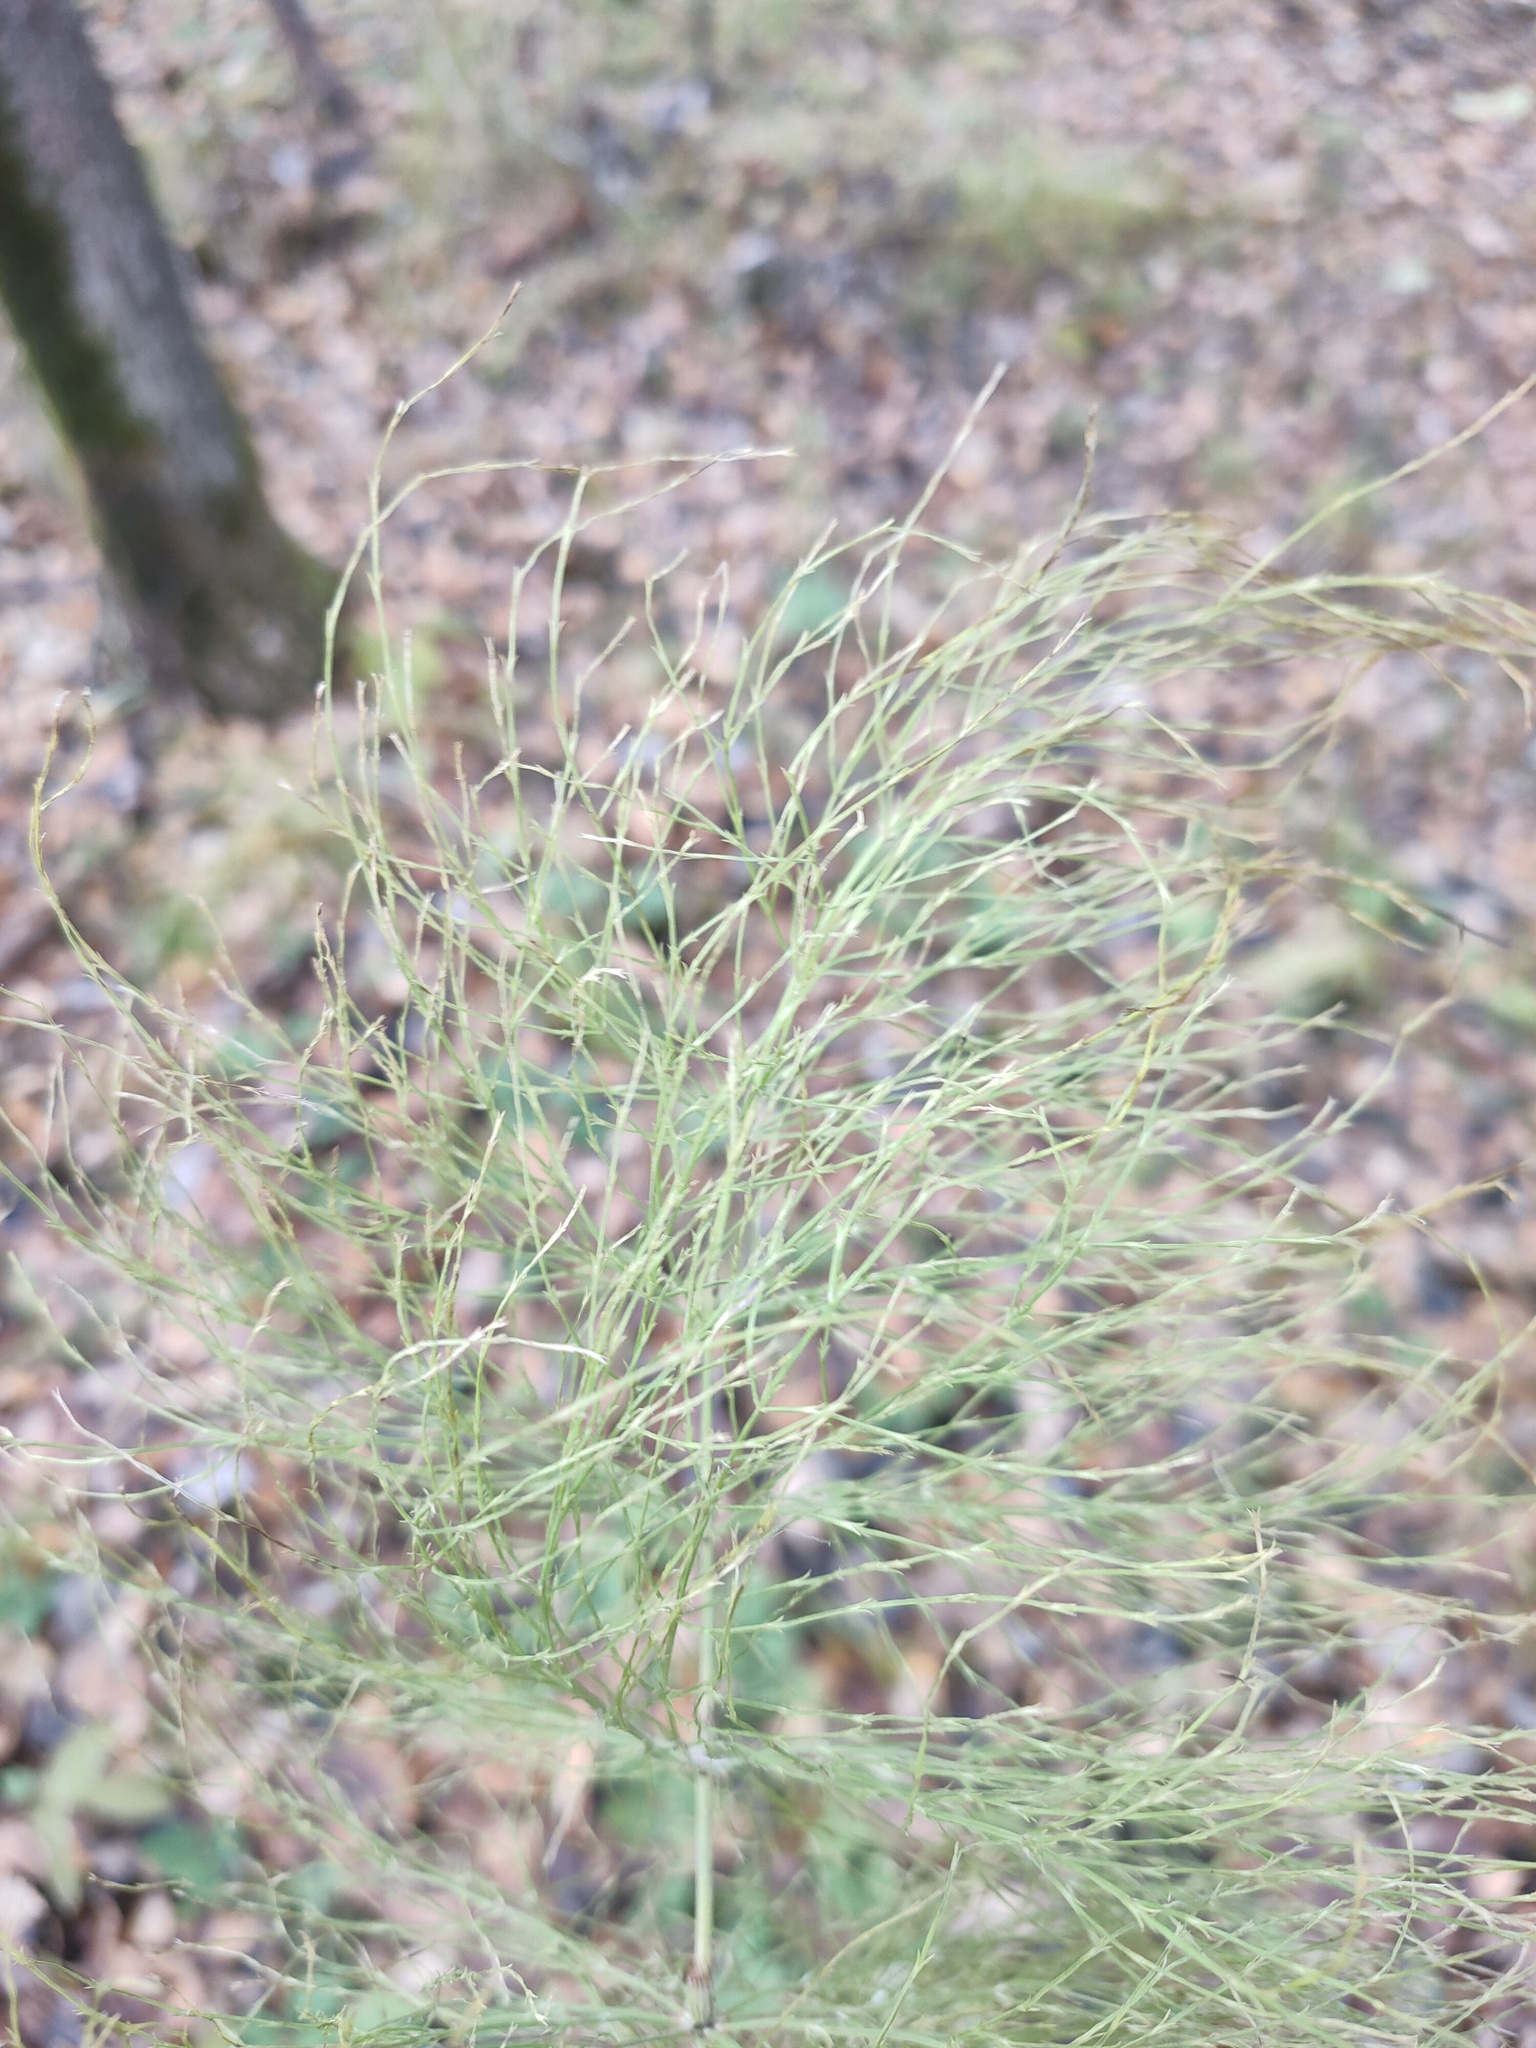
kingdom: Plantae
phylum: Tracheophyta
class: Polypodiopsida
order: Equisetales
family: Equisetaceae
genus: Equisetum
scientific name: Equisetum sylvaticum
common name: Wood horsetail
